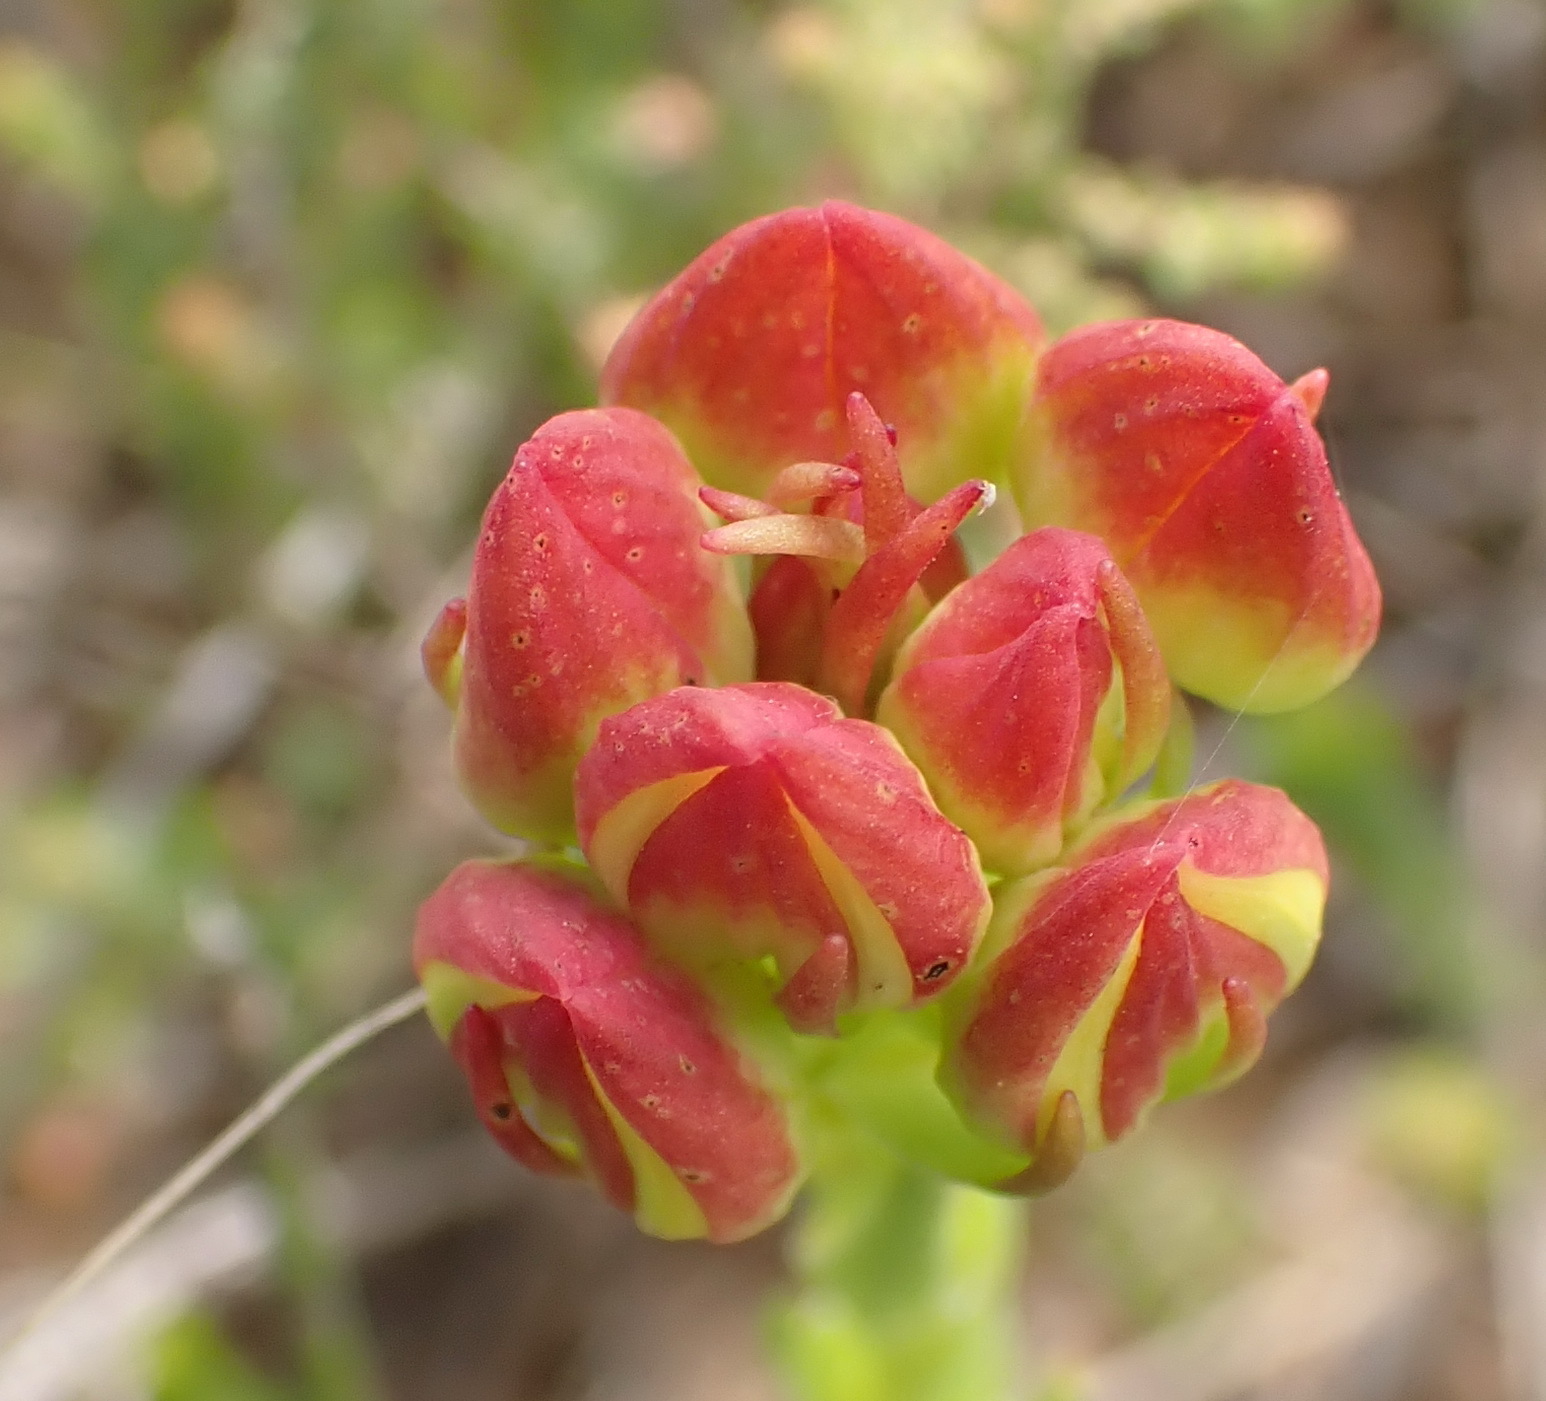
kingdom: Plantae
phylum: Tracheophyta
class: Liliopsida
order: Asparagales
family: Orchidaceae
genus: Ceratandra
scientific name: Ceratandra grandiflora
